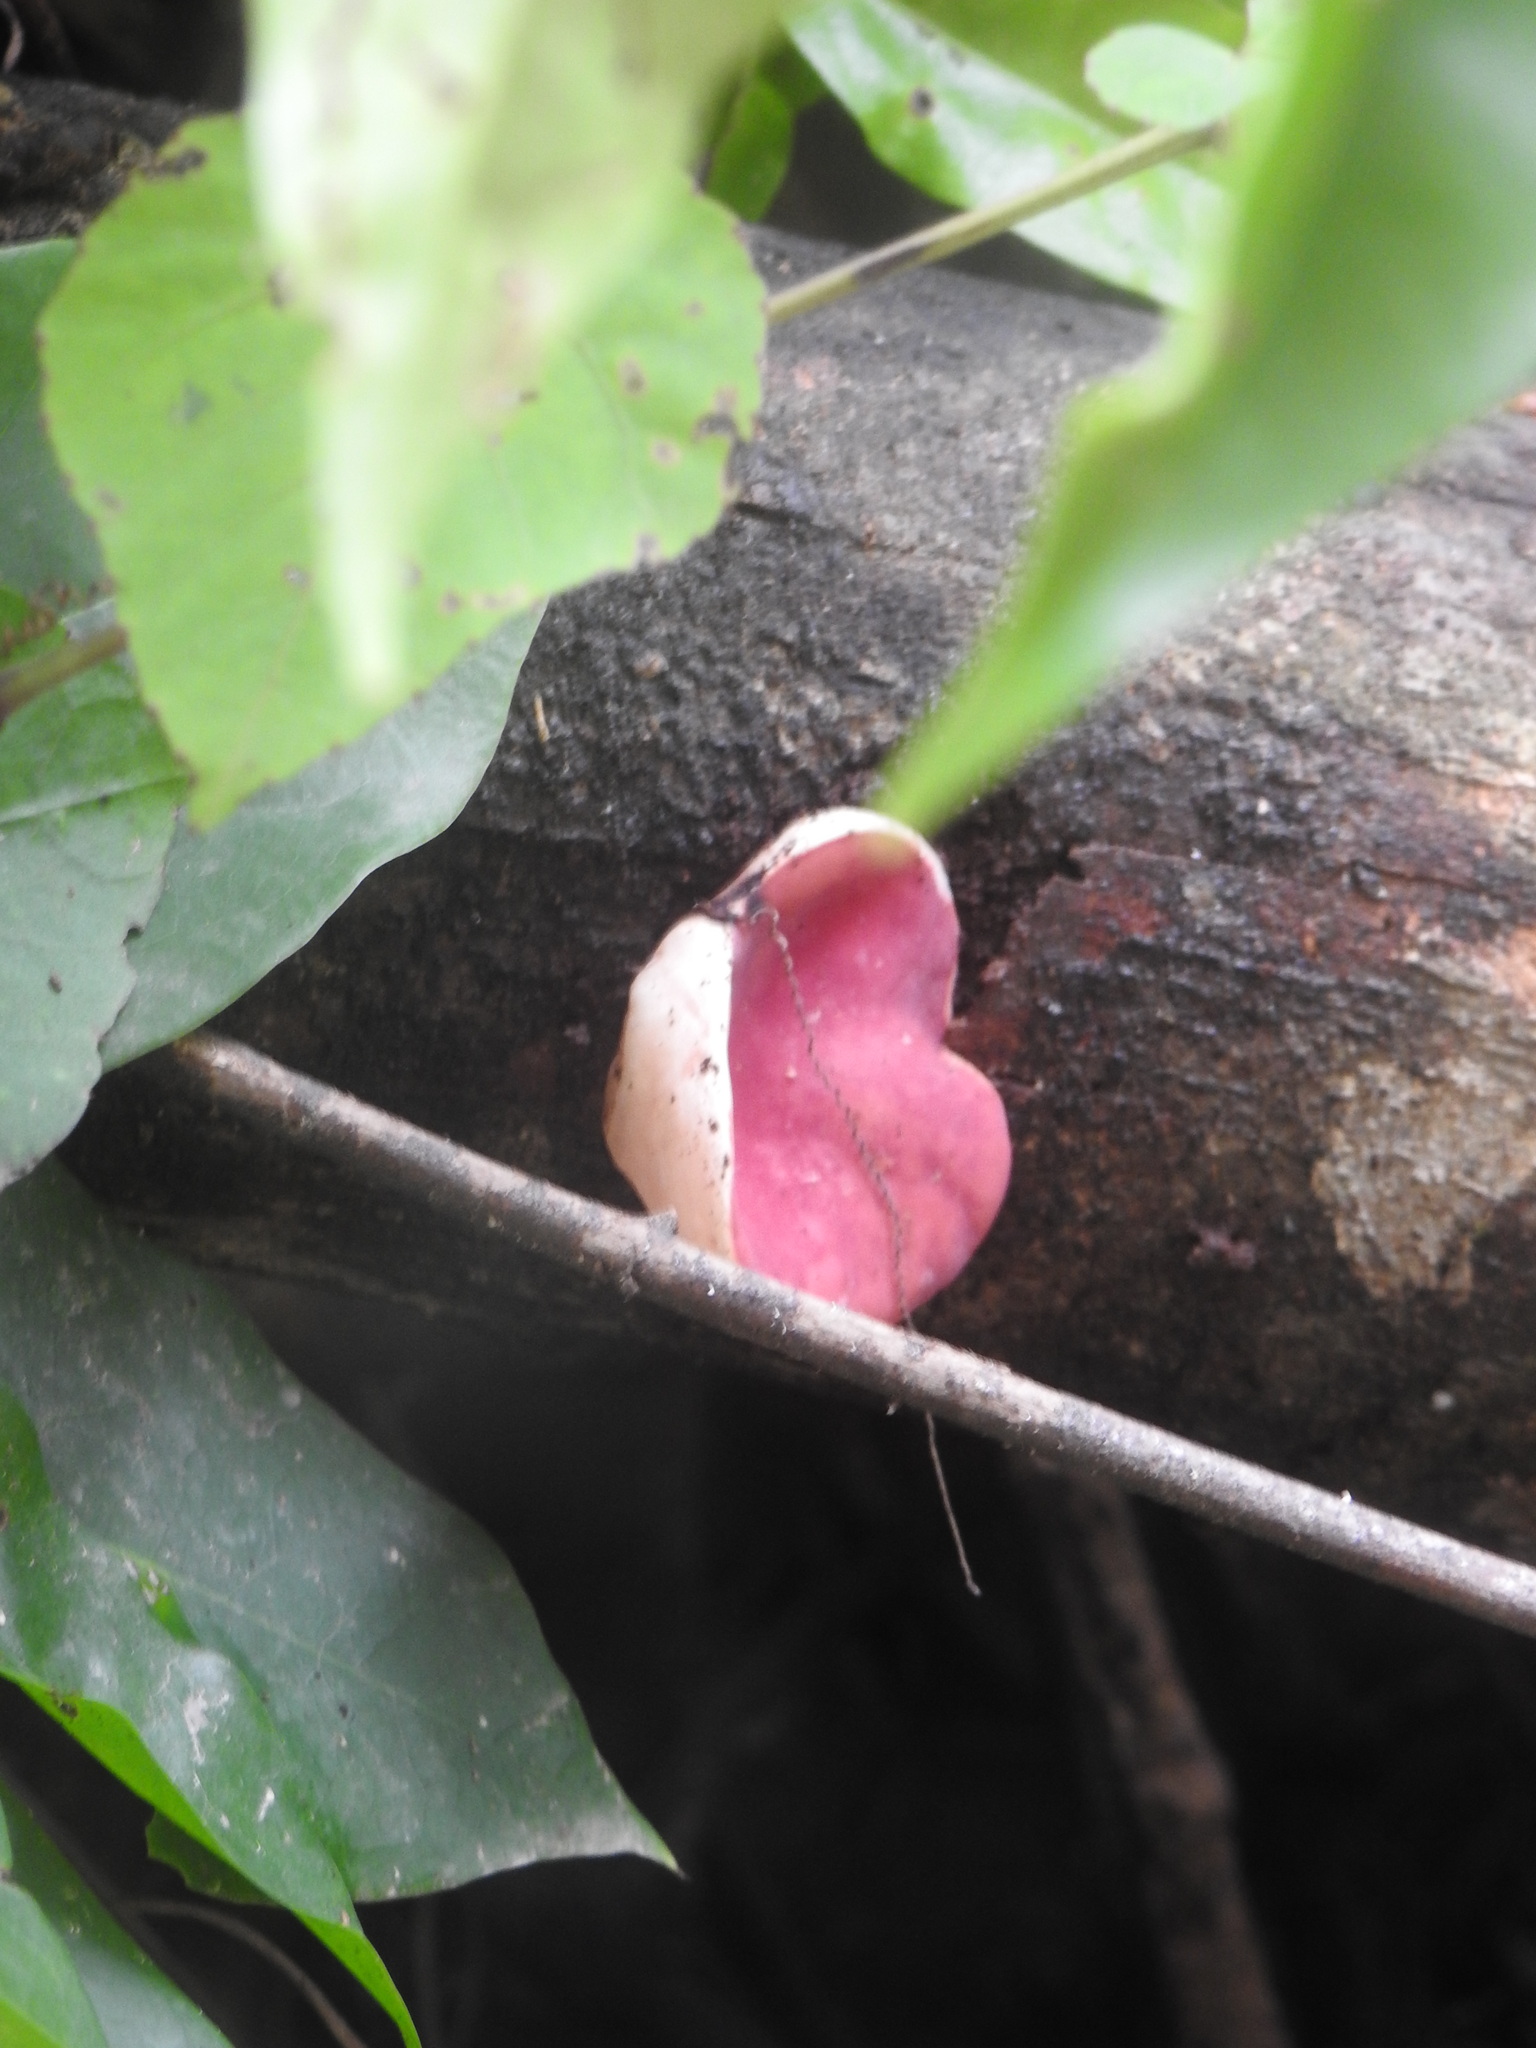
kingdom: Fungi
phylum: Ascomycota
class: Pezizomycetes
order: Pezizales
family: Sarcoscyphaceae
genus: Phillipsia
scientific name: Phillipsia domingensis
